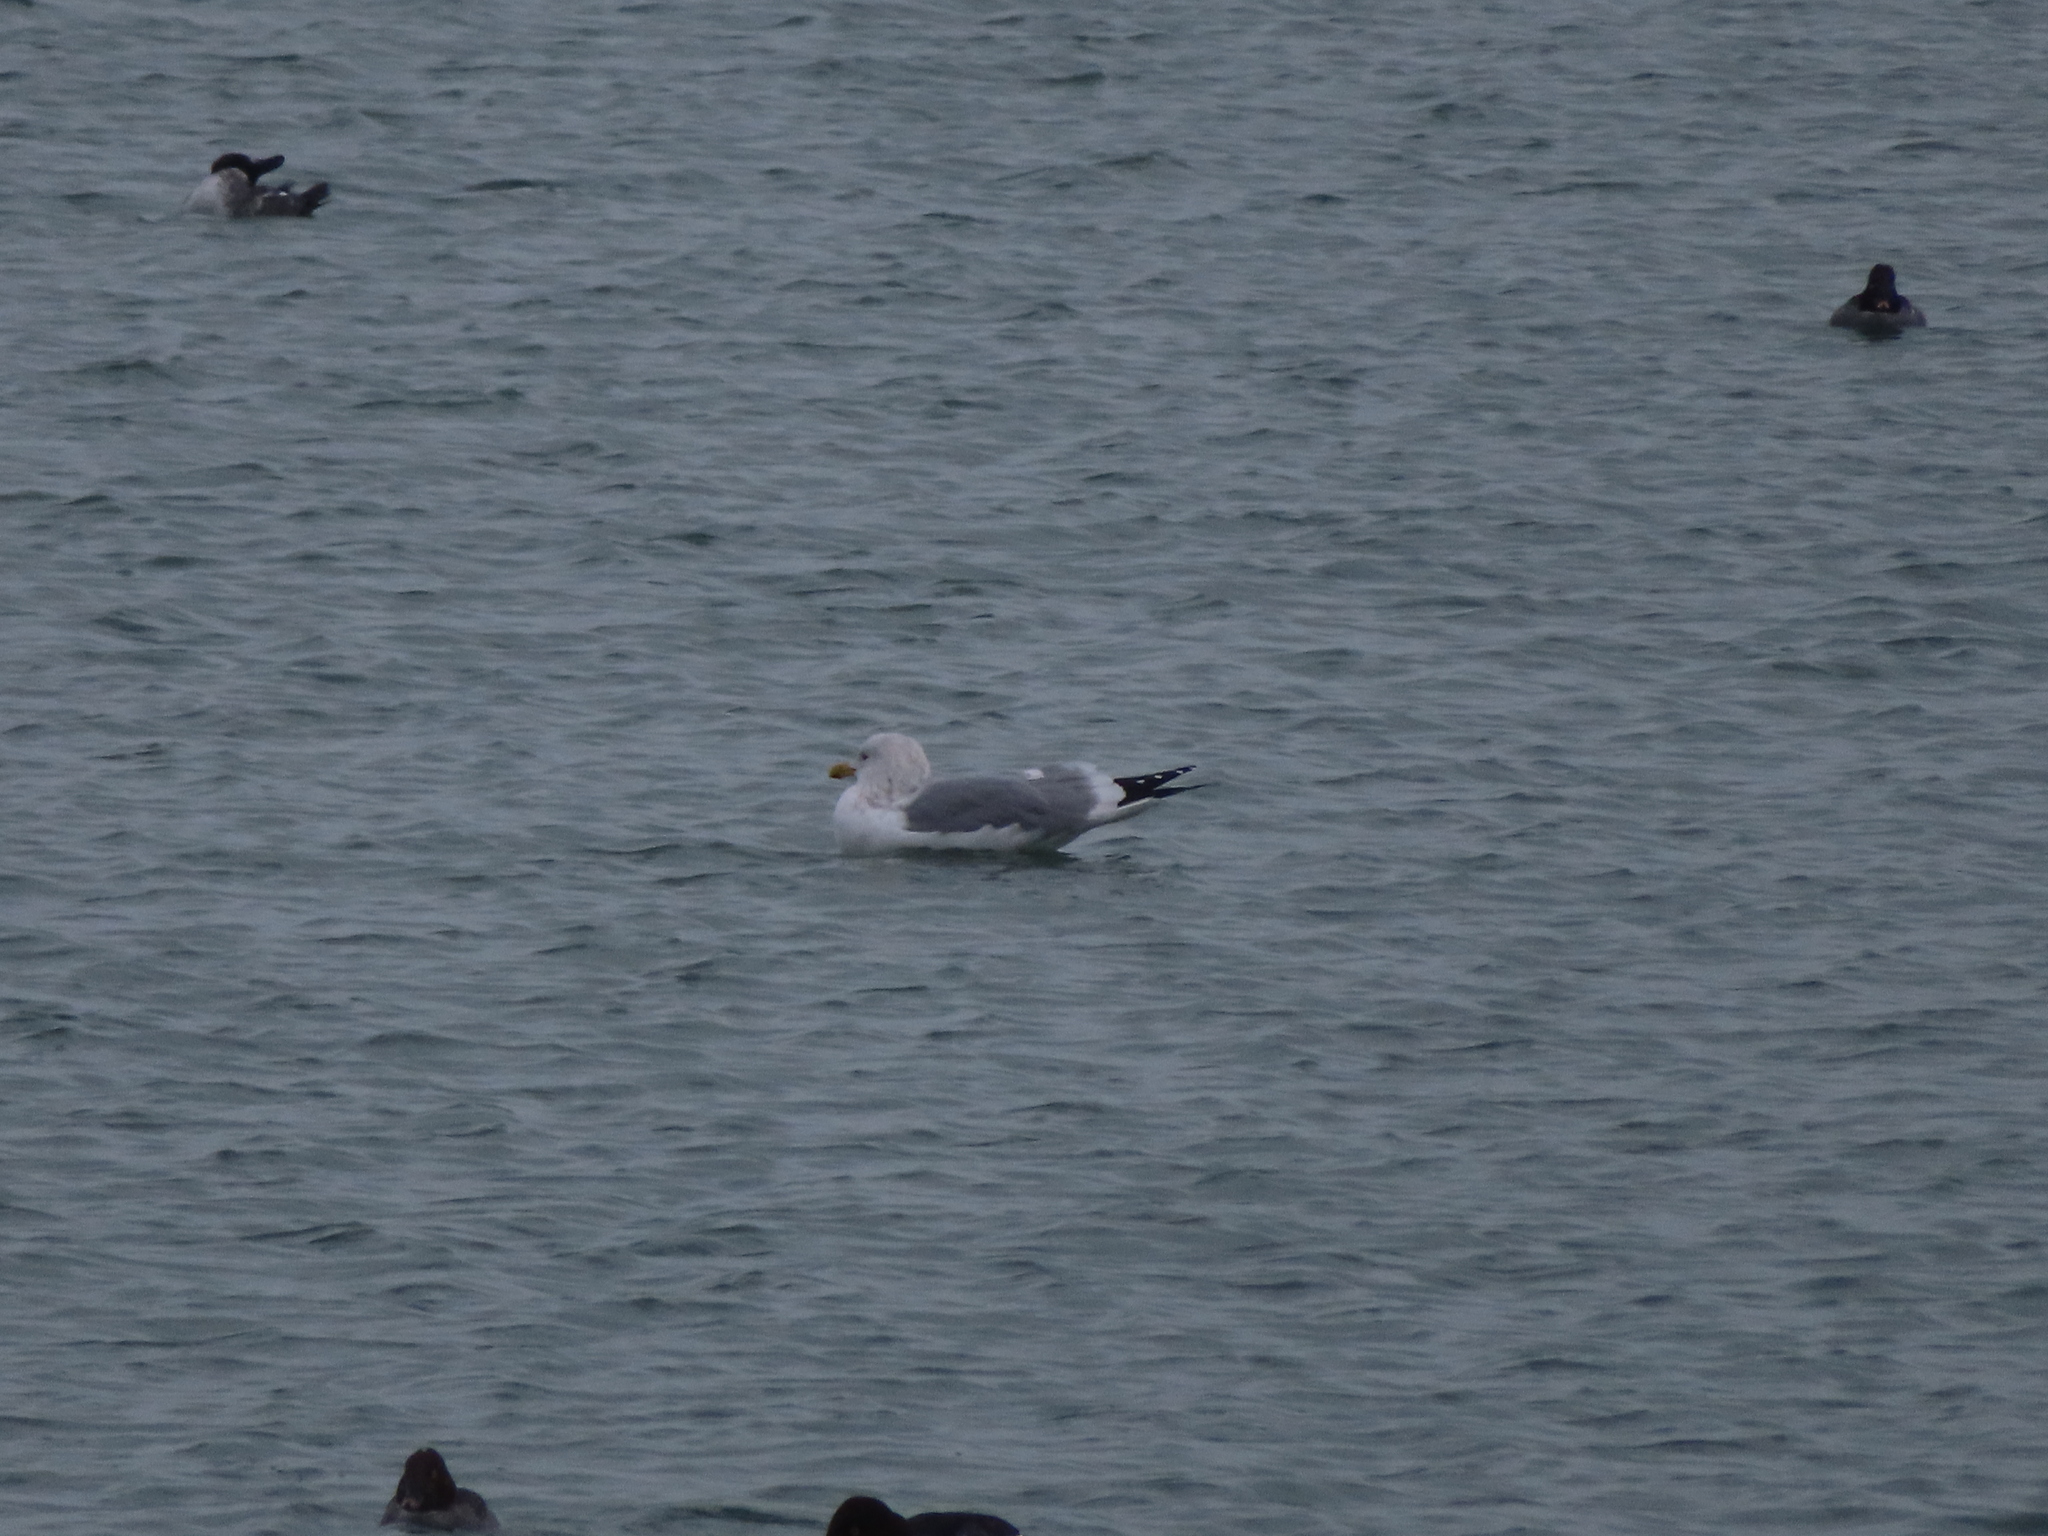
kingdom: Animalia
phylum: Chordata
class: Aves
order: Charadriiformes
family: Laridae
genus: Larus
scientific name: Larus argentatus
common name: Herring gull
